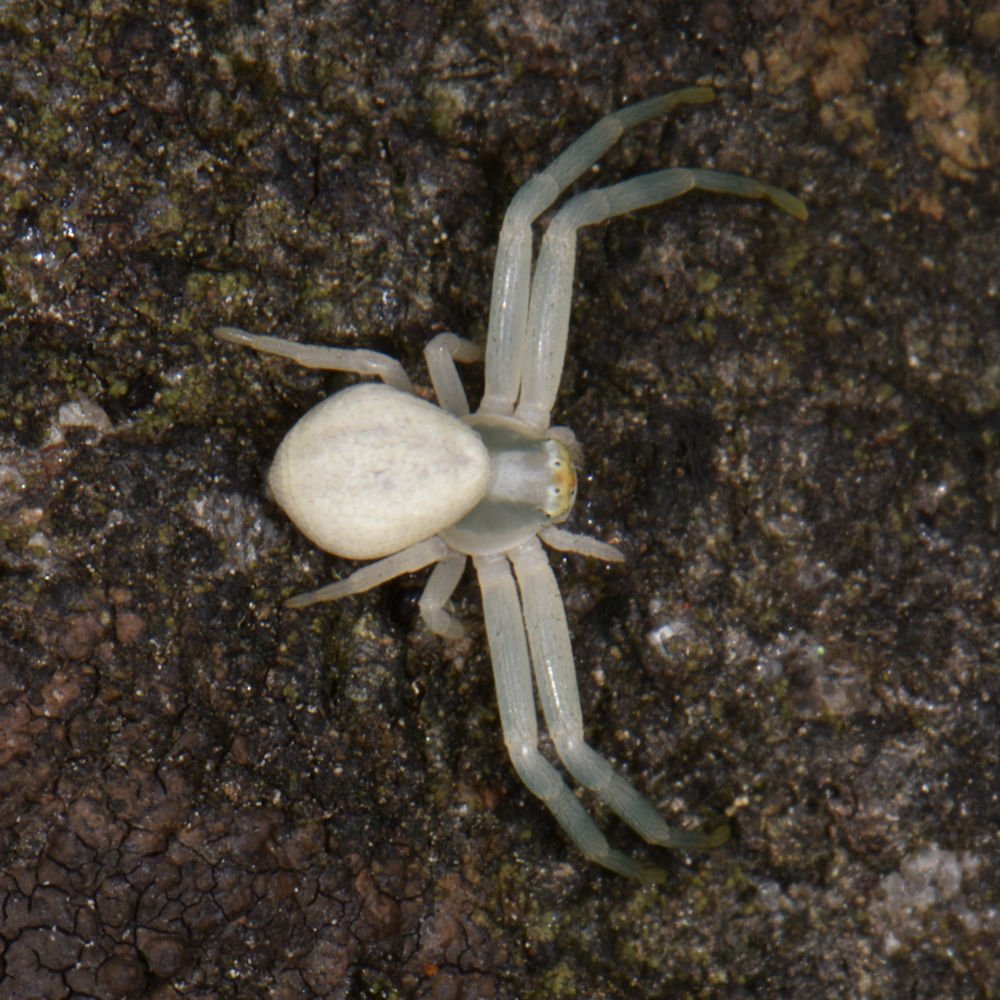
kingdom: Animalia
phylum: Arthropoda
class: Arachnida
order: Araneae
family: Thomisidae
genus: Misumena
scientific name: Misumena vatia
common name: Goldenrod crab spider
